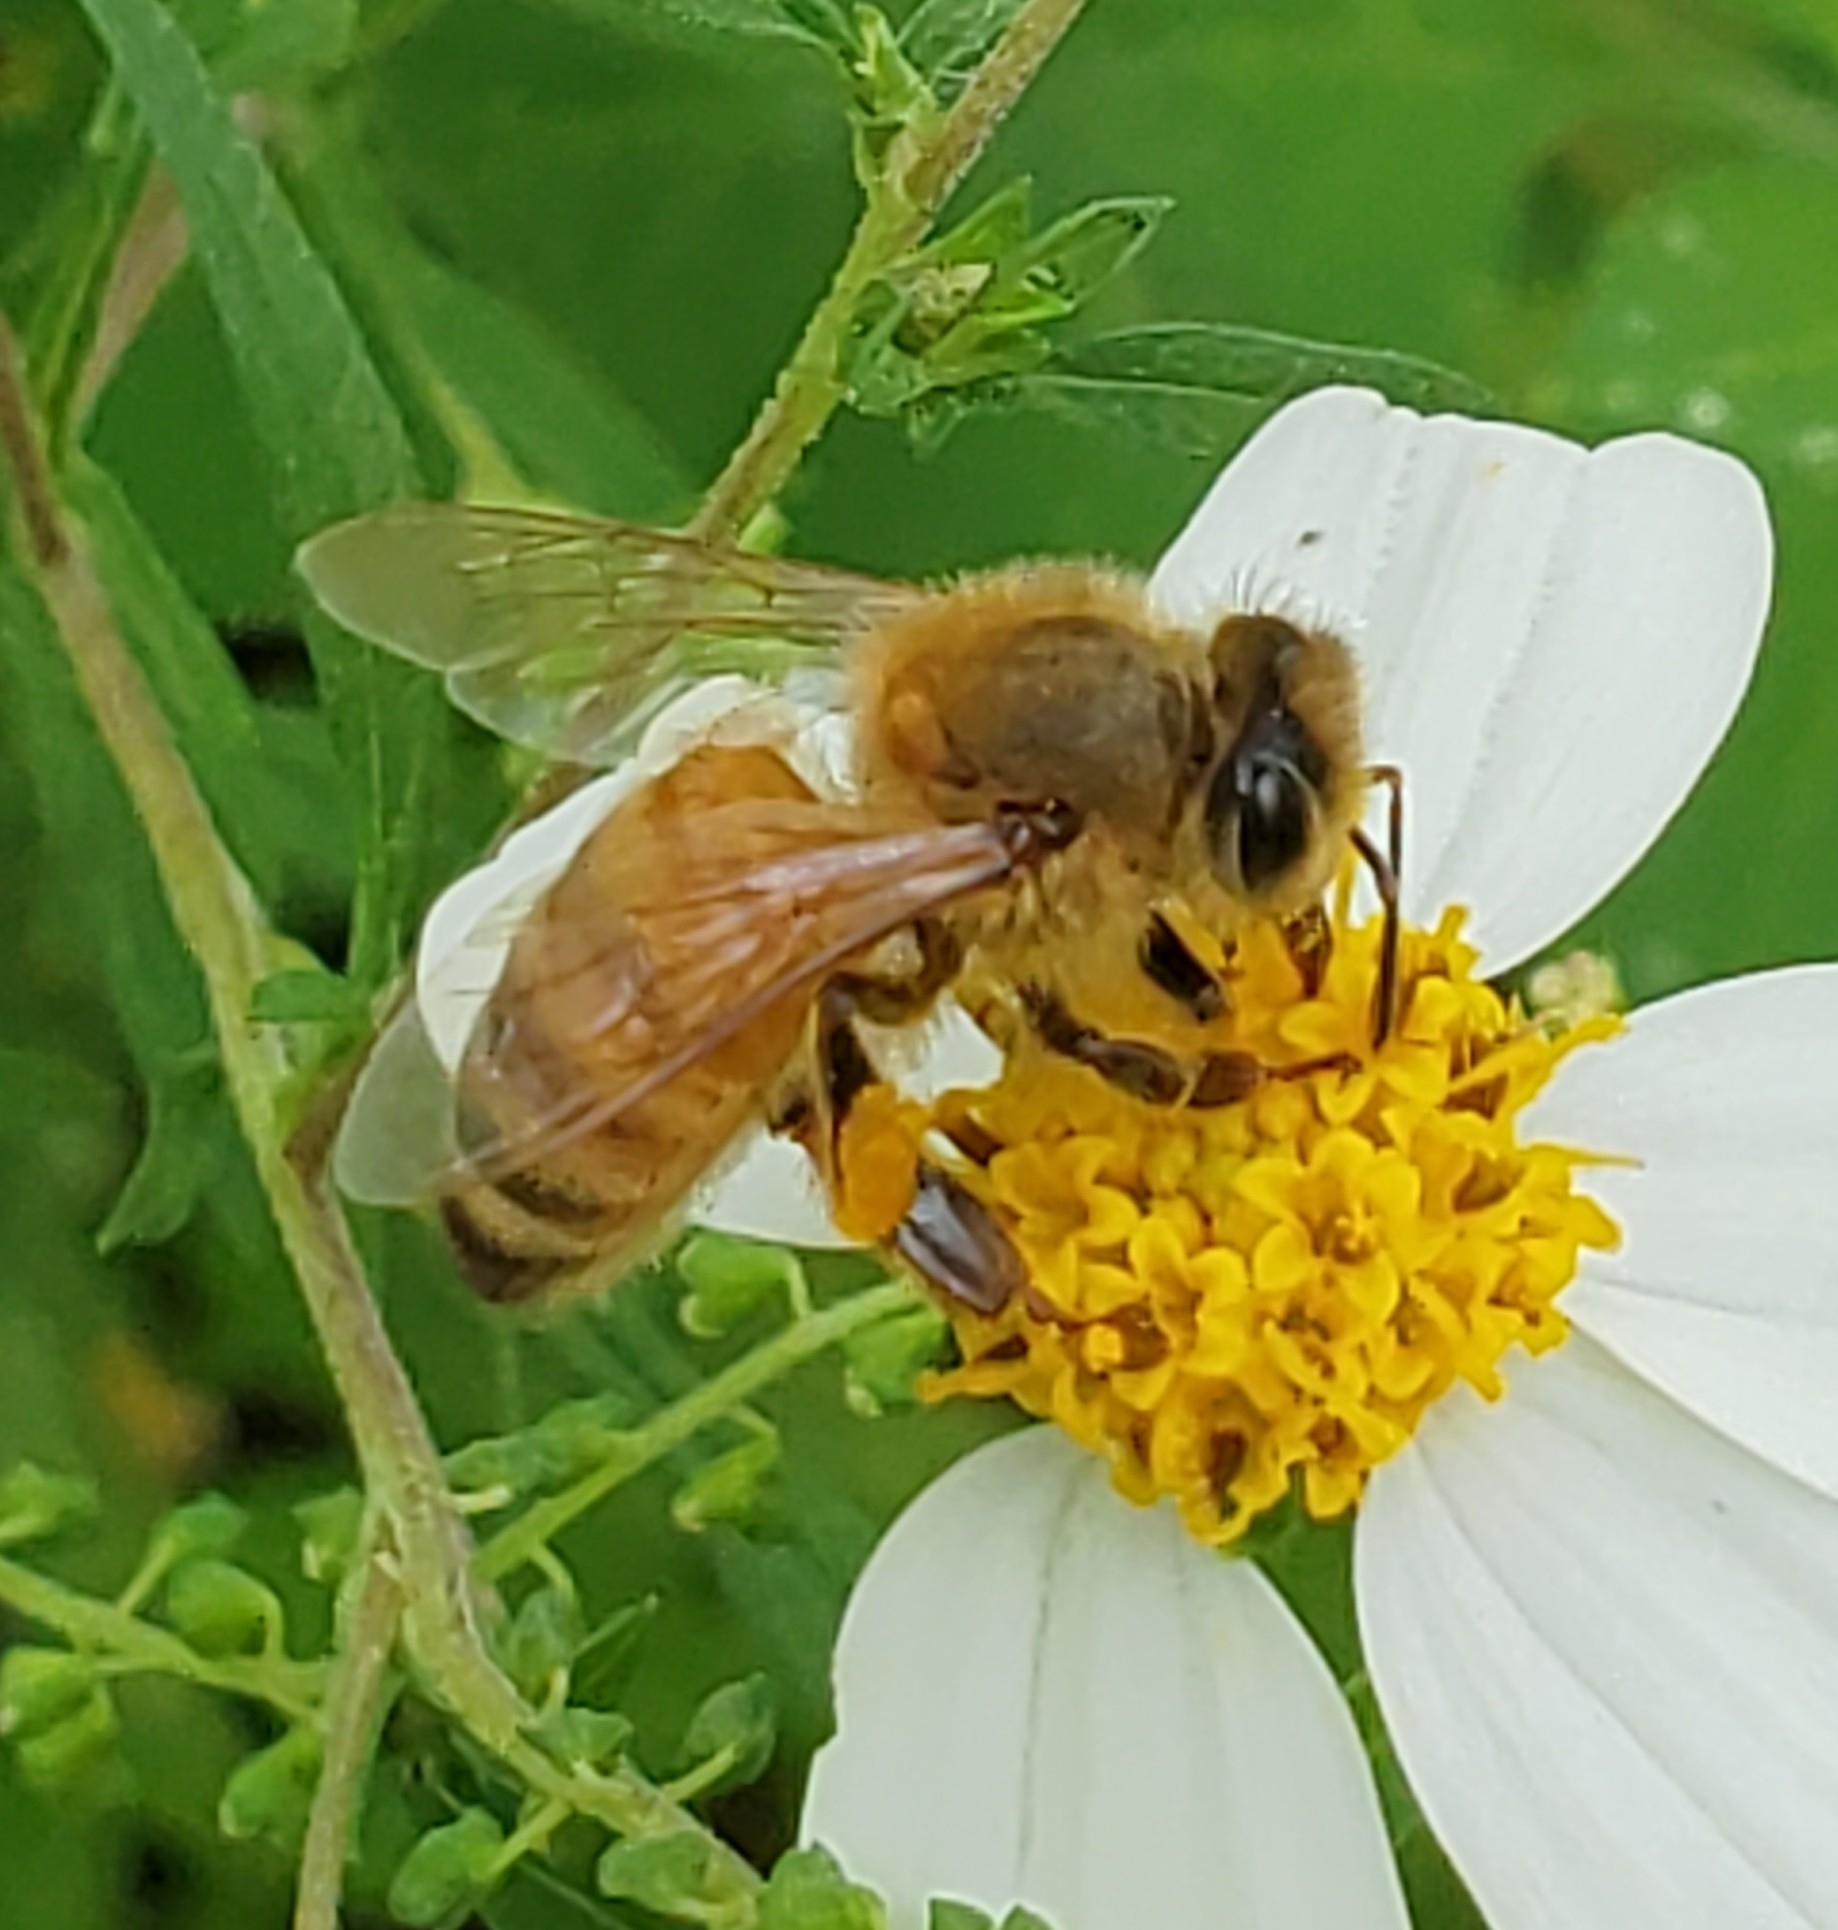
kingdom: Animalia
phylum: Arthropoda
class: Insecta
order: Hymenoptera
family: Apidae
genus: Apis
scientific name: Apis mellifera
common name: Honey bee
